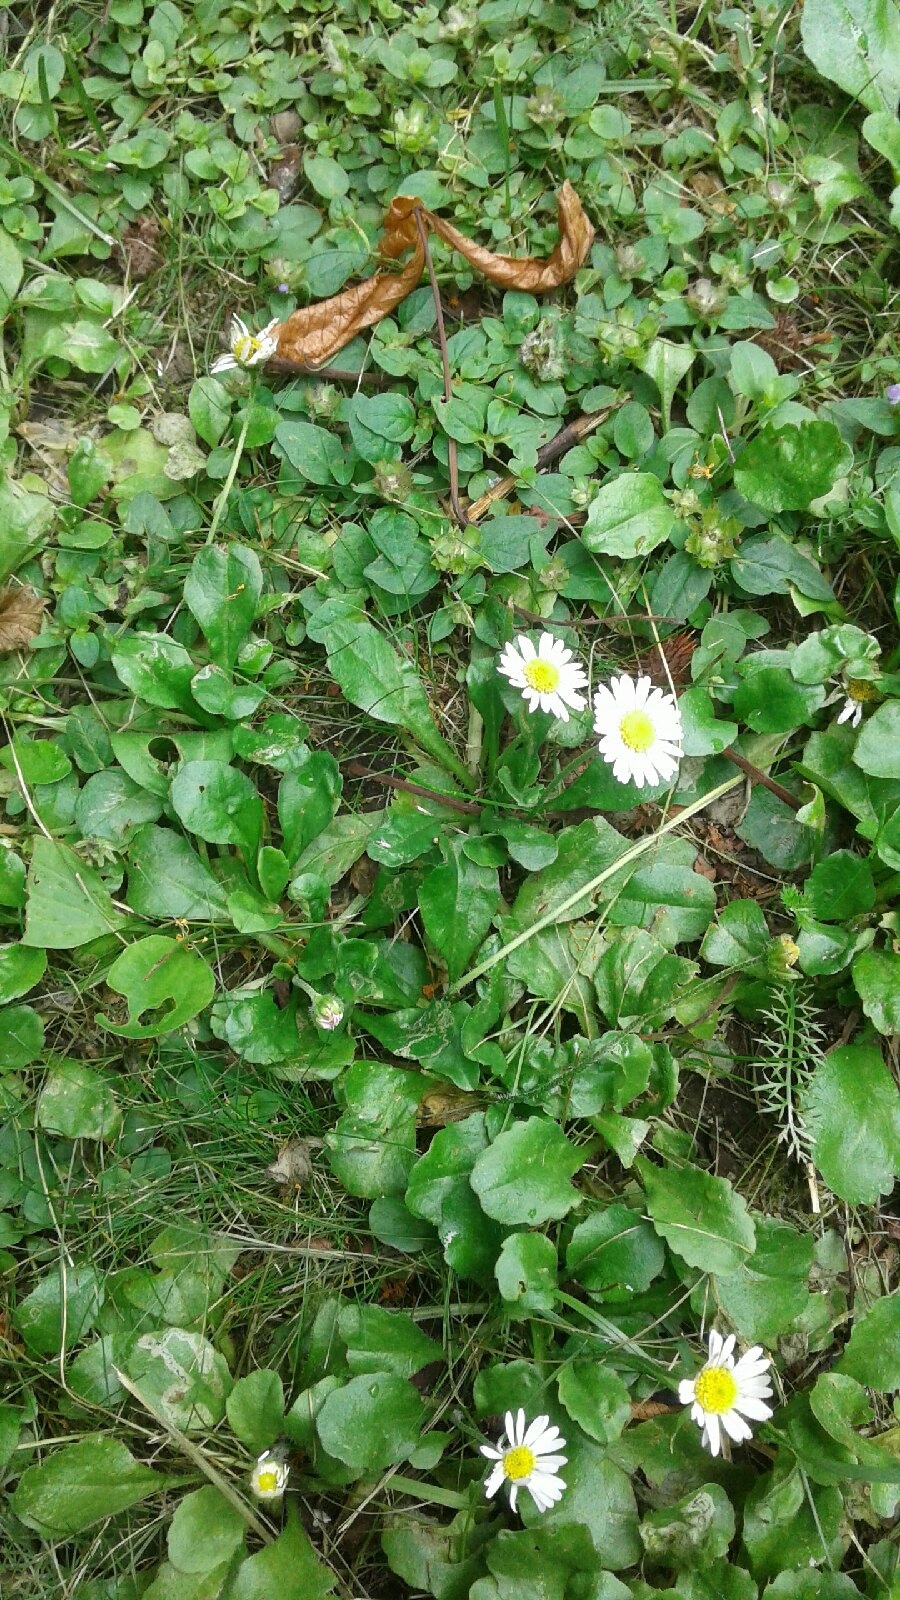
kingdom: Plantae
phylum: Tracheophyta
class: Magnoliopsida
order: Asterales
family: Asteraceae
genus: Bellis
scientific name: Bellis perennis
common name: Lawndaisy
